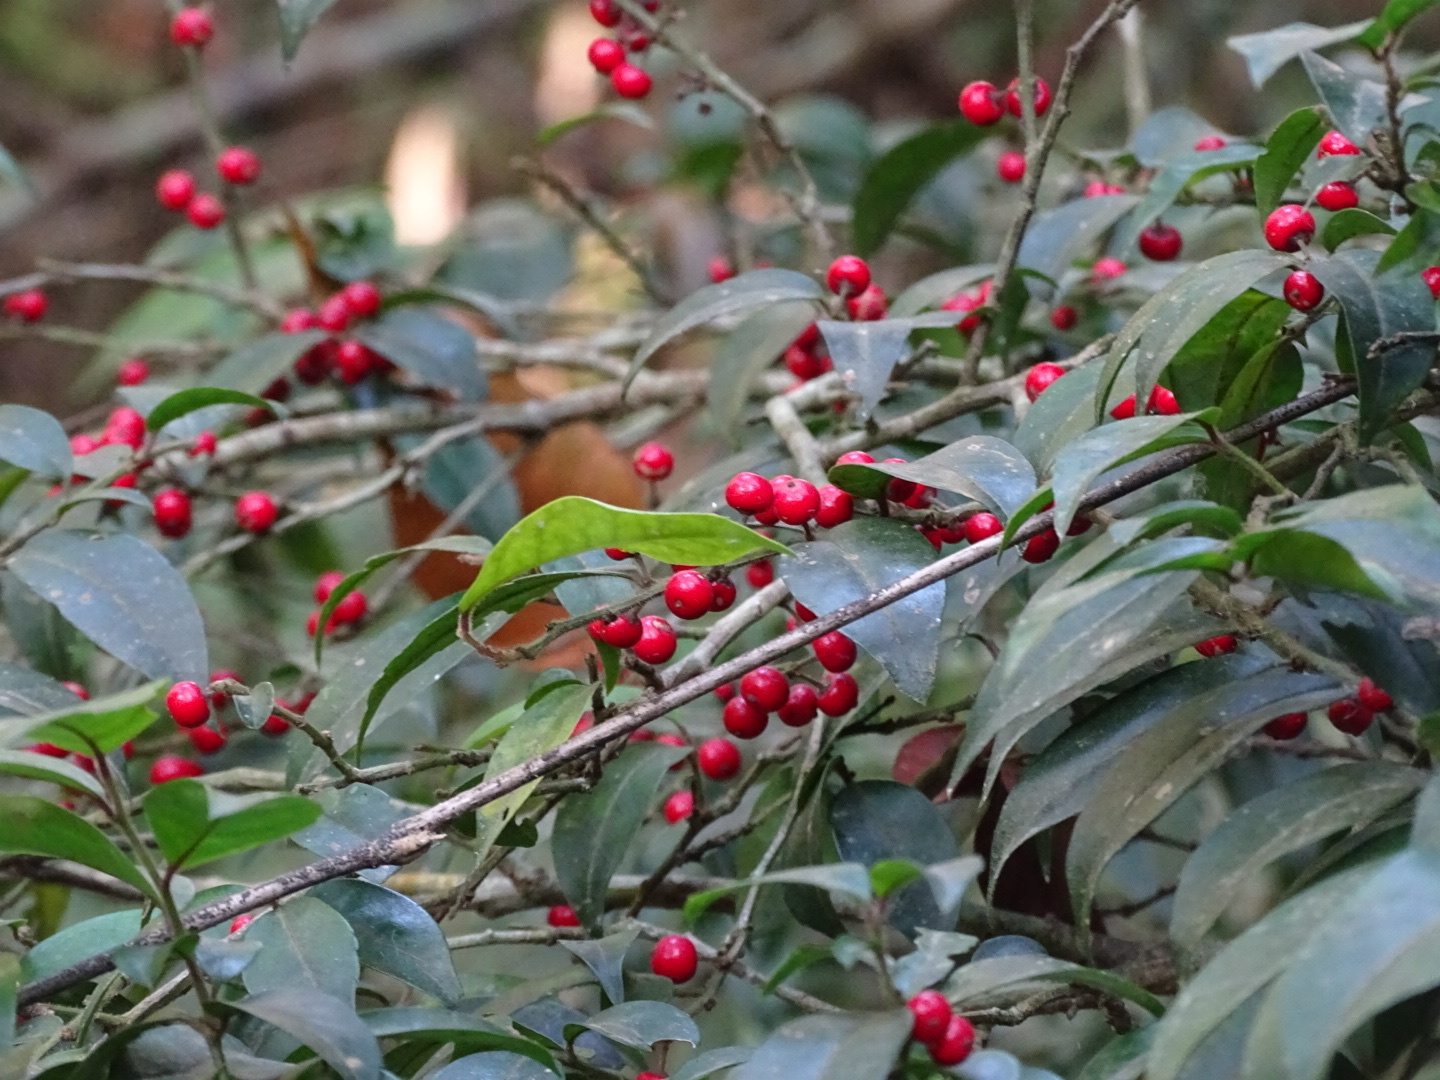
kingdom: Plantae
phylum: Tracheophyta
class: Magnoliopsida
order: Aquifoliales
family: Aquifoliaceae
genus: Ilex
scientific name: Ilex pubescens
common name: Pubescent holly
